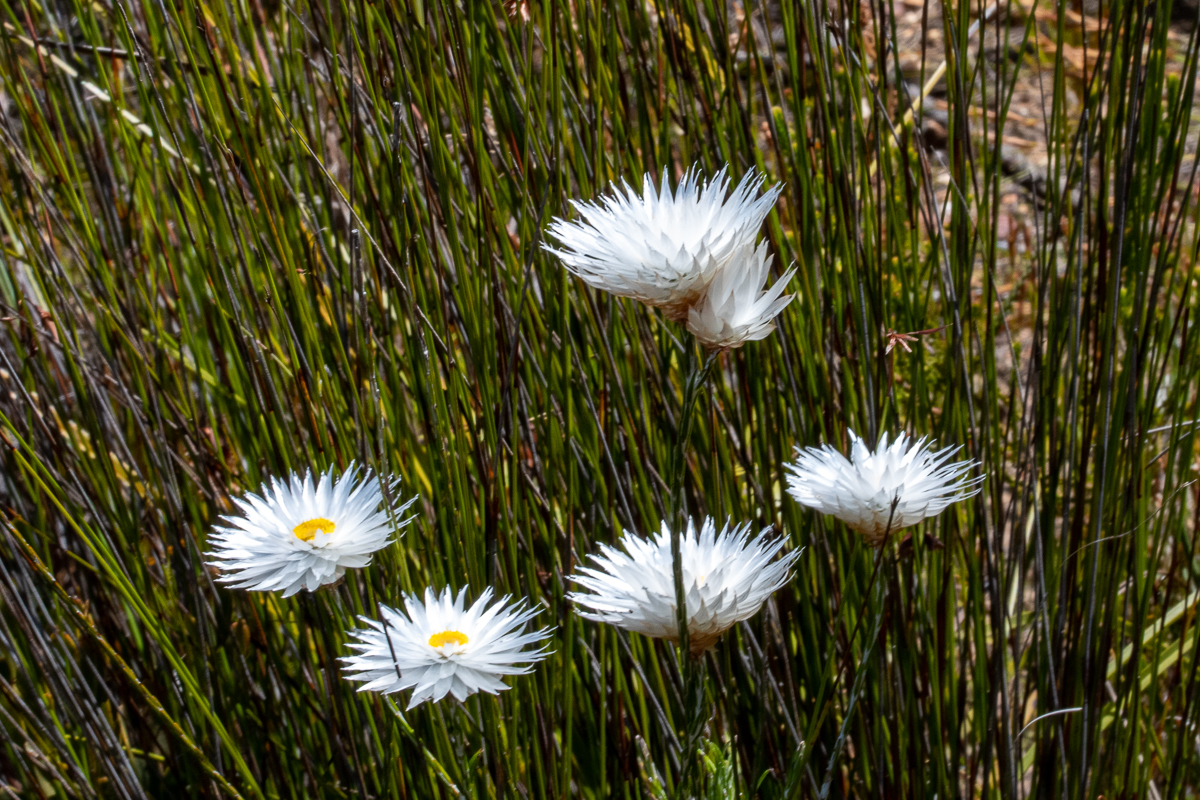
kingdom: Plantae
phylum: Tracheophyta
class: Magnoliopsida
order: Asterales
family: Asteraceae
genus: Edmondia
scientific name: Edmondia sesamoides
